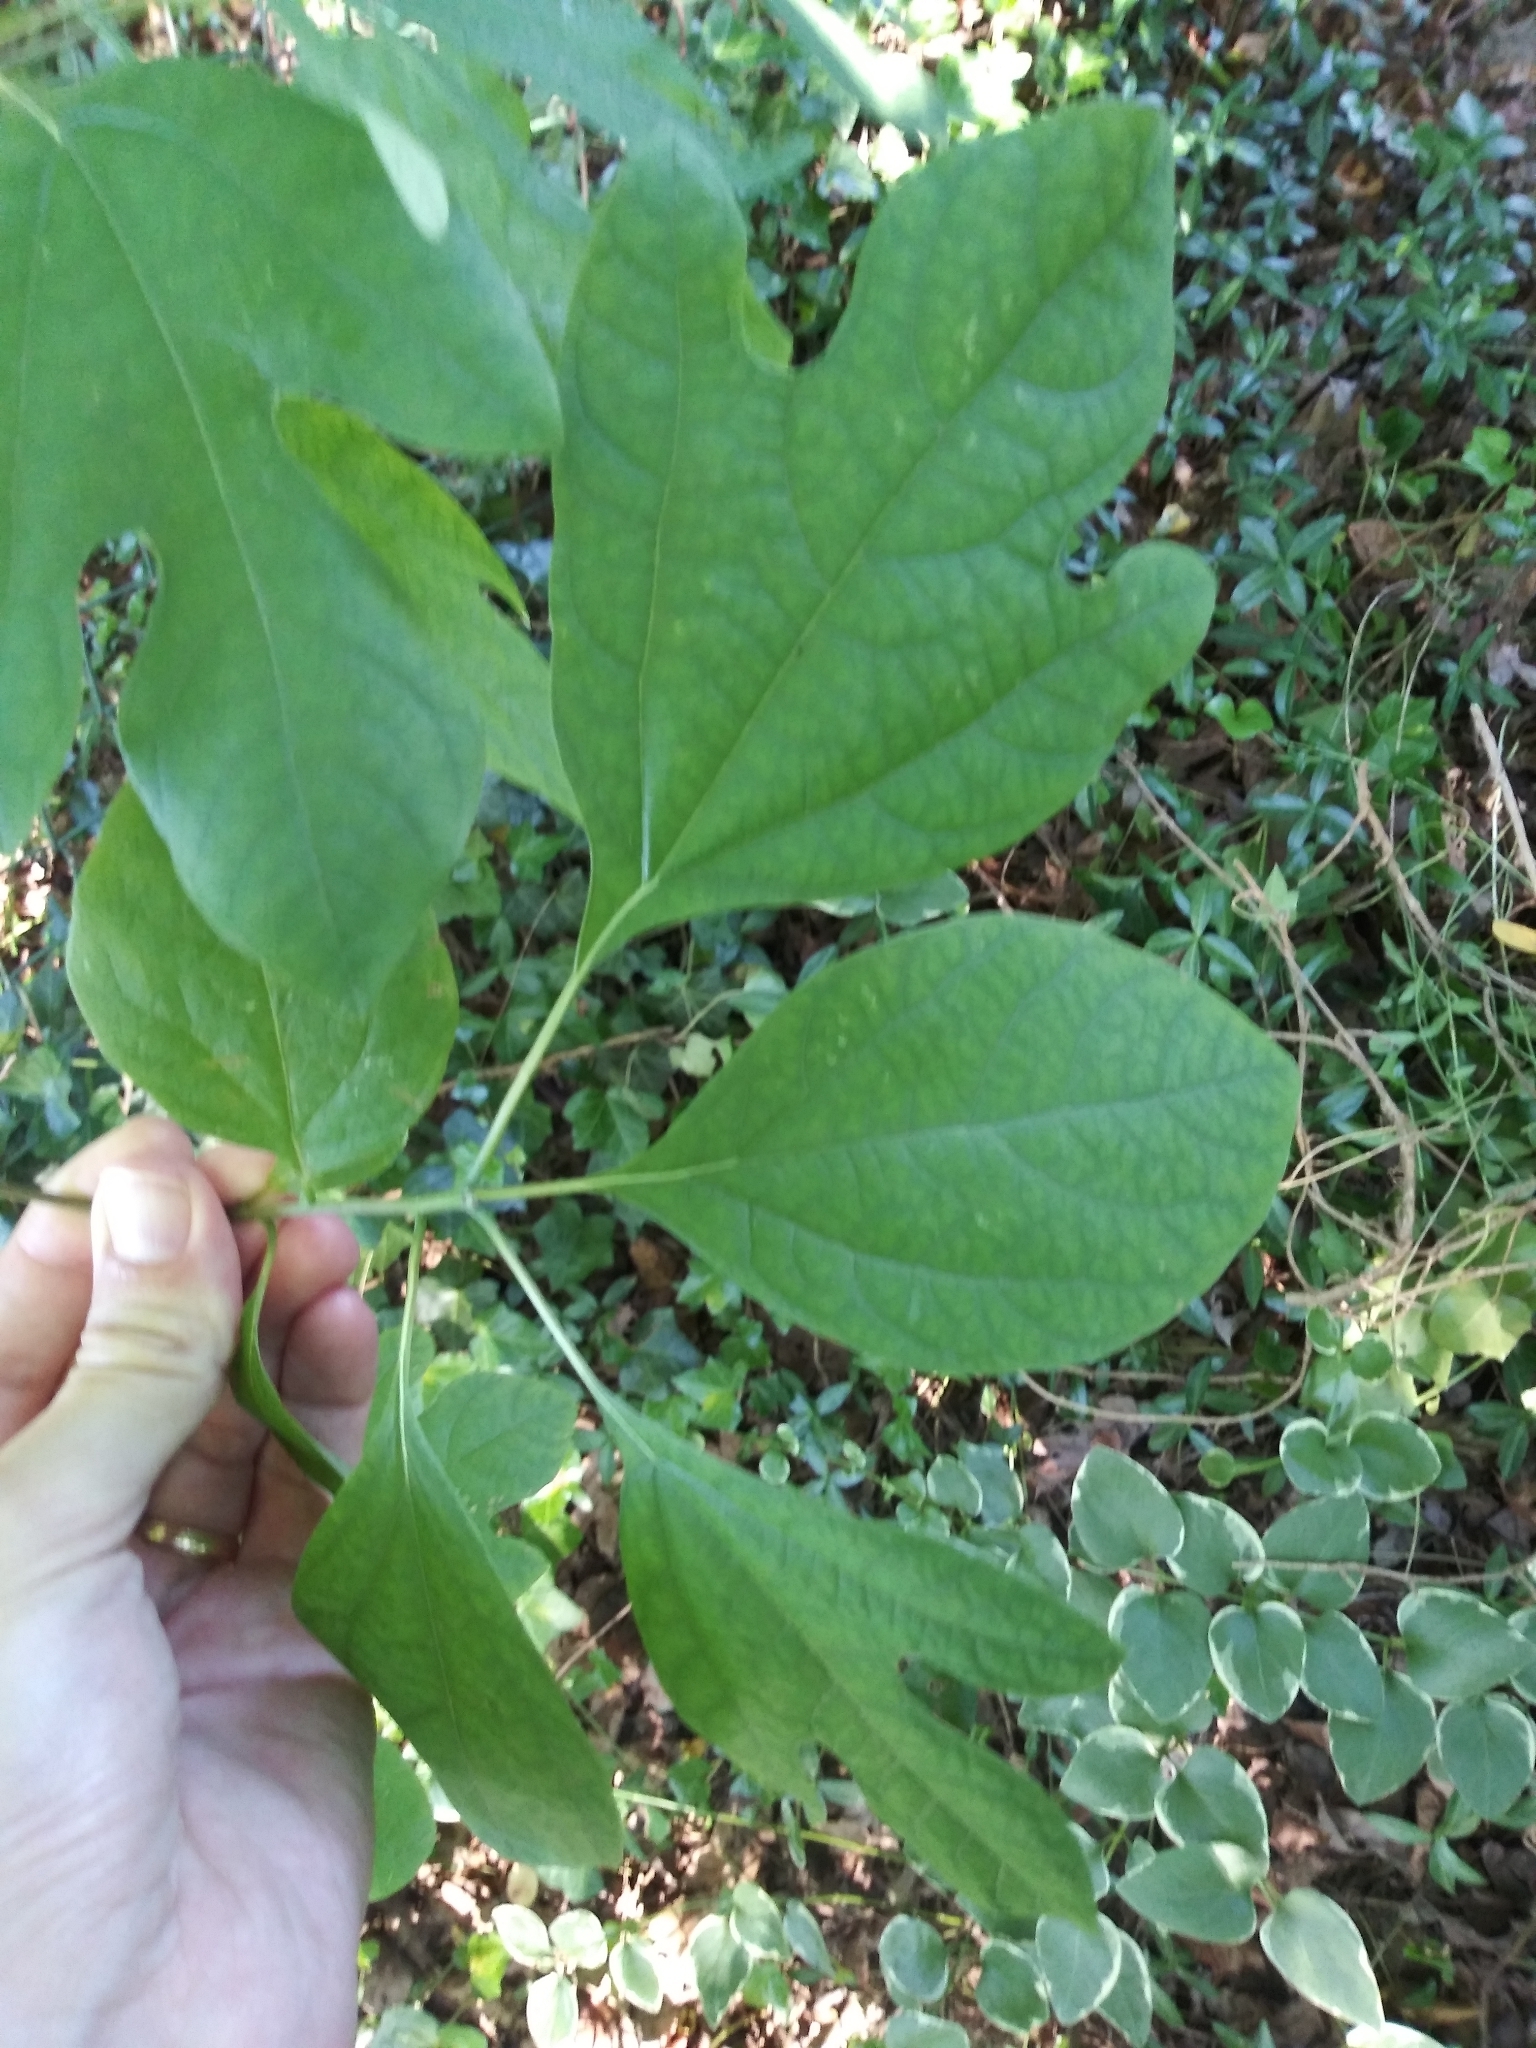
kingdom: Plantae
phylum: Tracheophyta
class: Magnoliopsida
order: Laurales
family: Lauraceae
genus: Sassafras
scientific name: Sassafras albidum
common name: Sassafras
